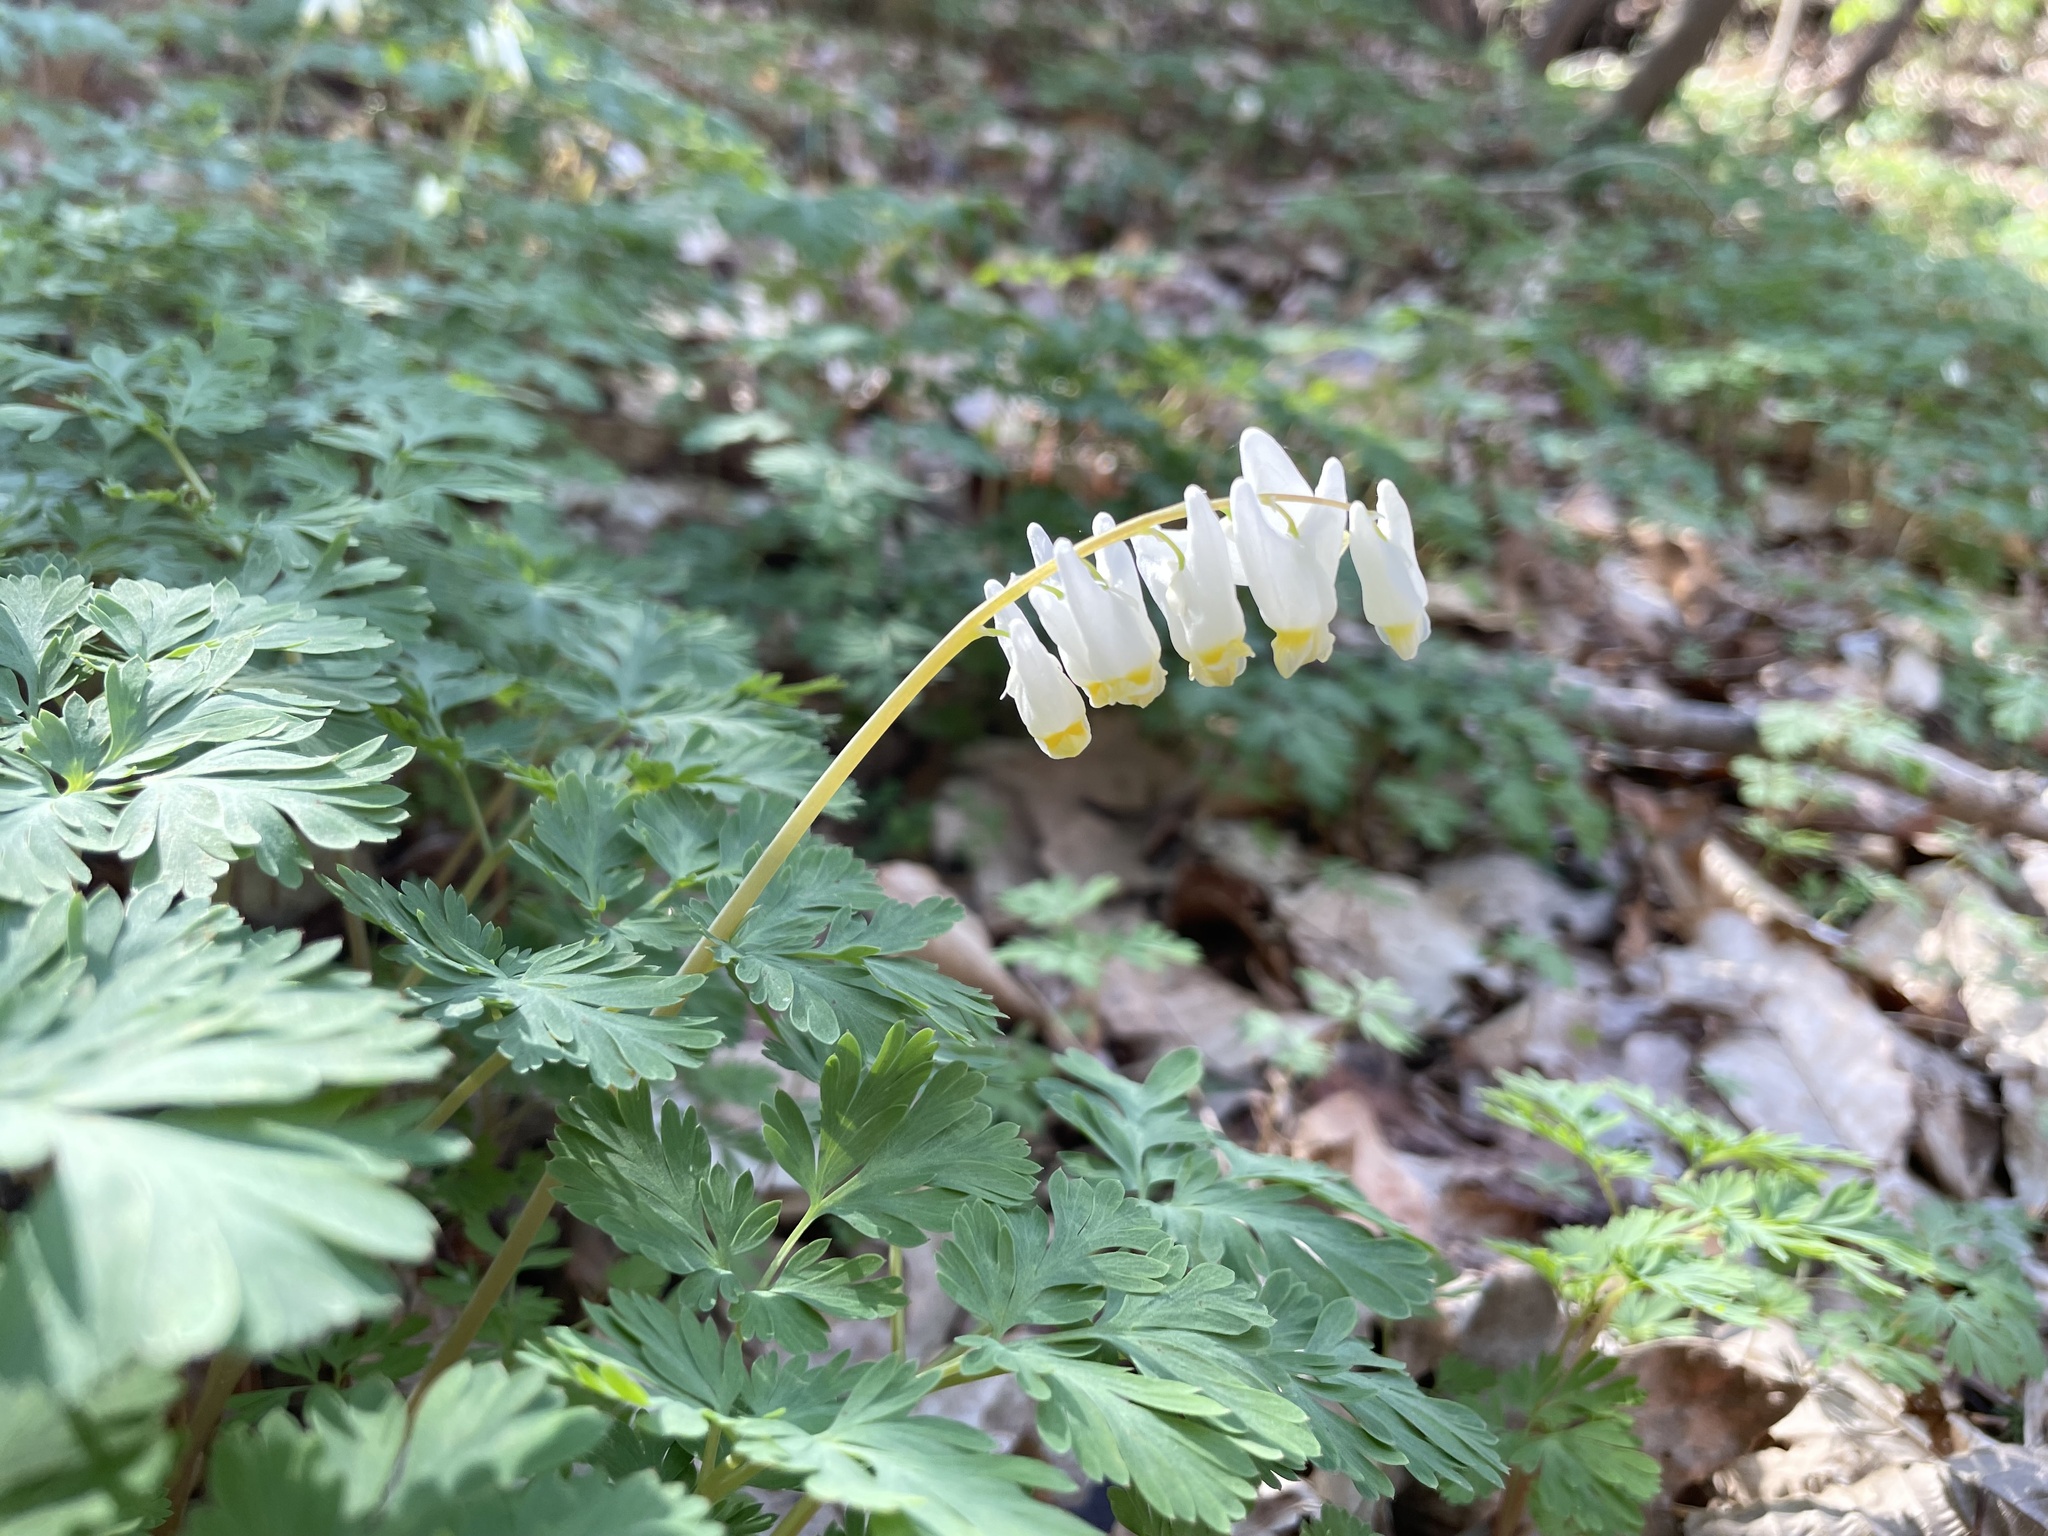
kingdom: Plantae
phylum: Tracheophyta
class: Magnoliopsida
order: Ranunculales
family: Papaveraceae
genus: Dicentra
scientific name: Dicentra cucullaria
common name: Dutchman's breeches
